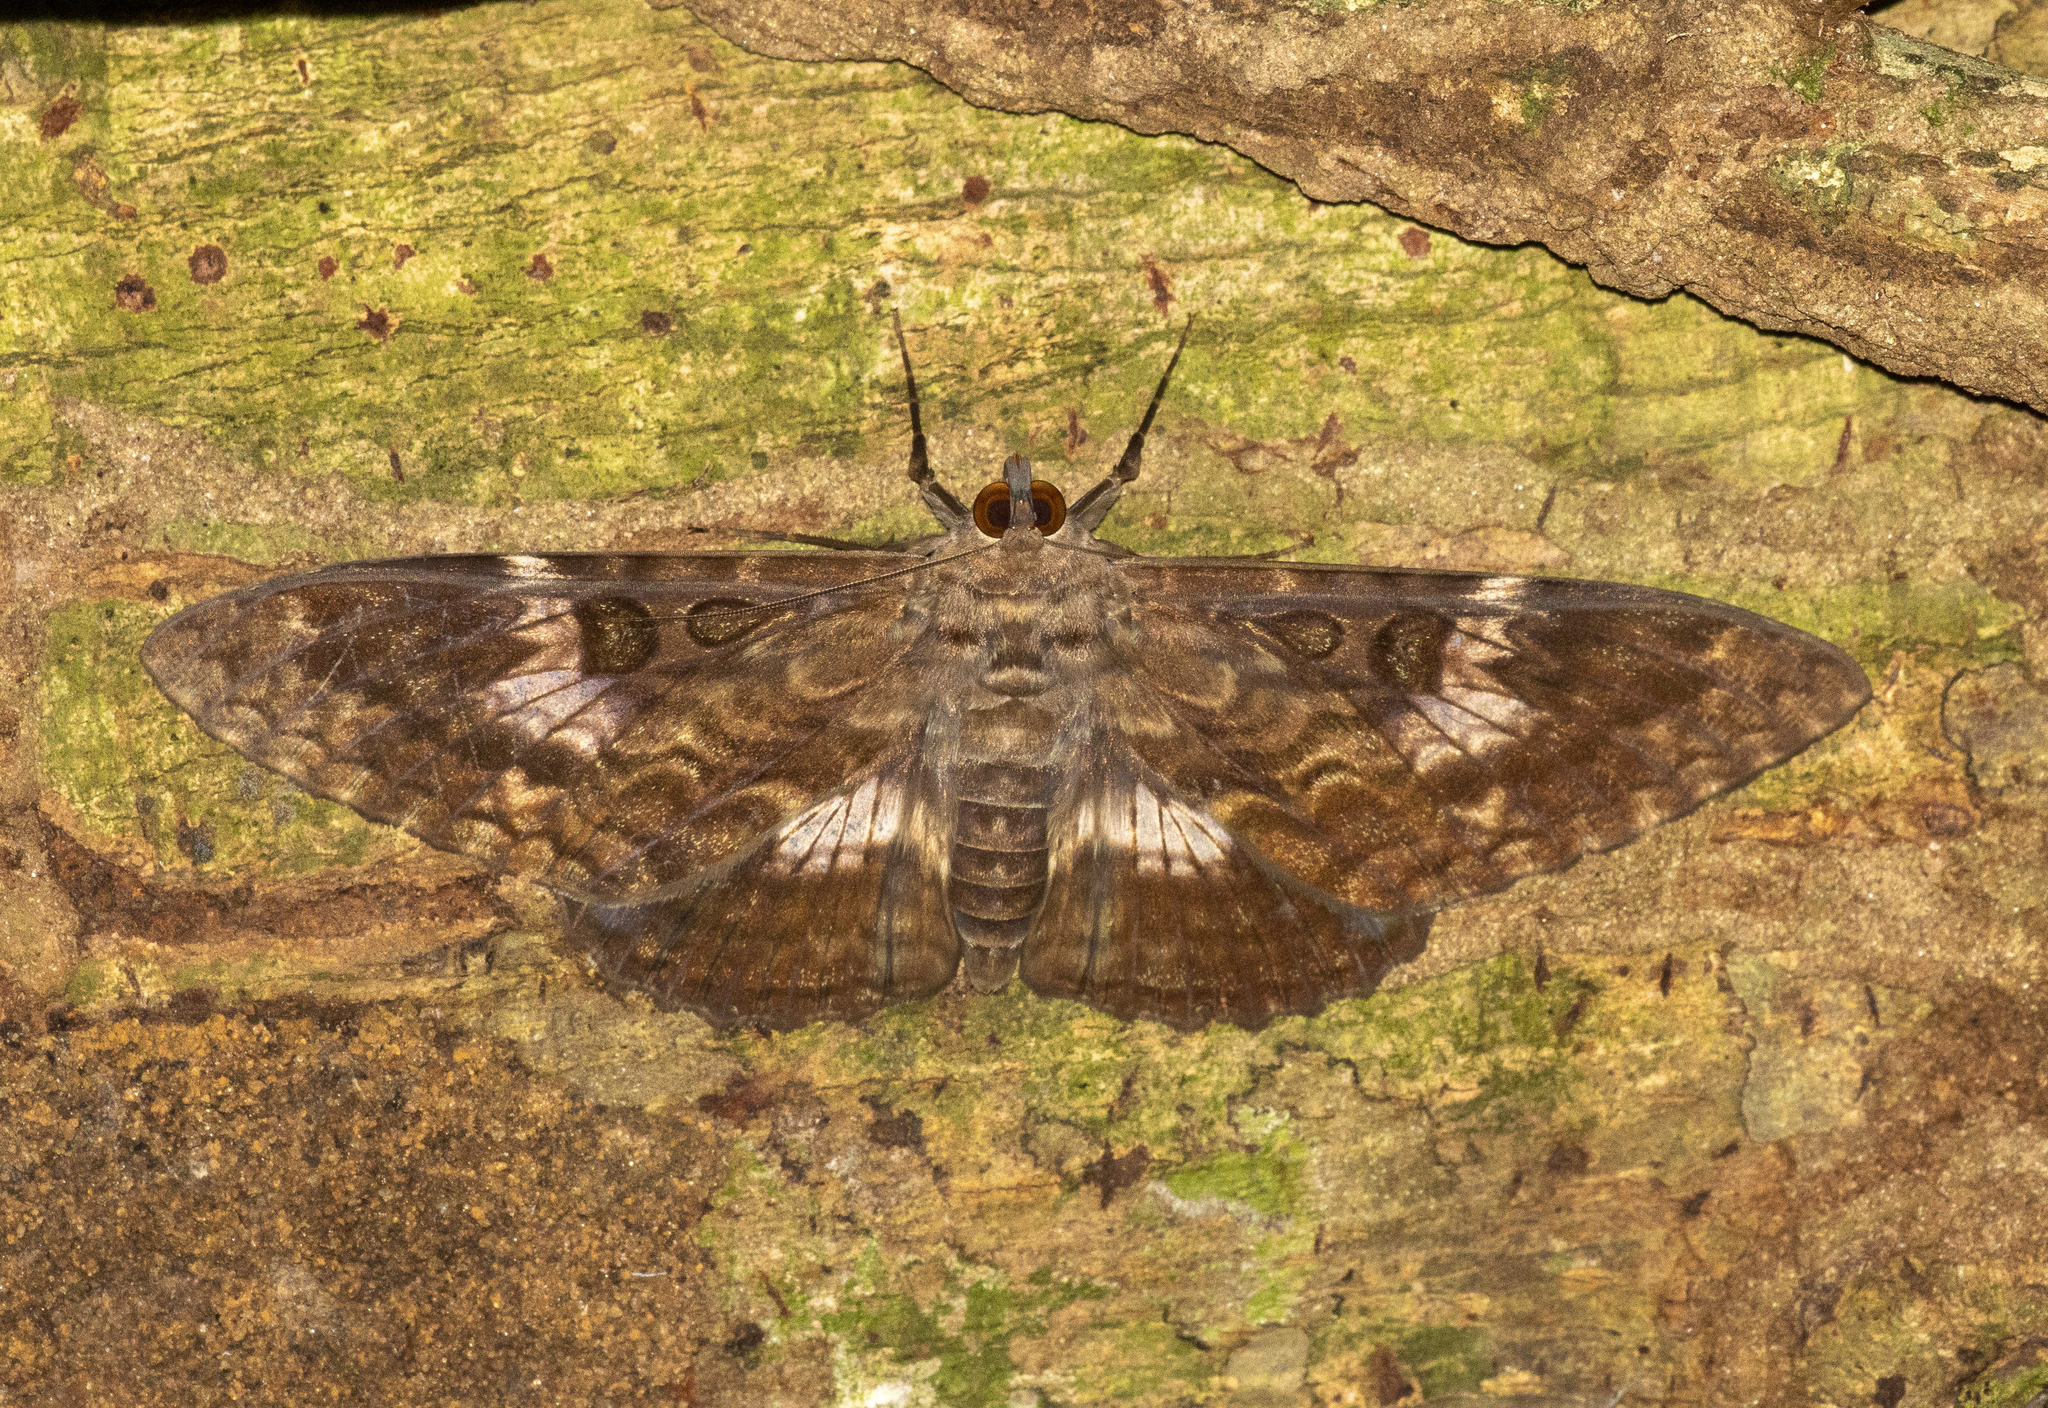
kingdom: Animalia
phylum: Arthropoda
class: Insecta
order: Lepidoptera
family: Erebidae
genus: Letis
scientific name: Letis specularis
